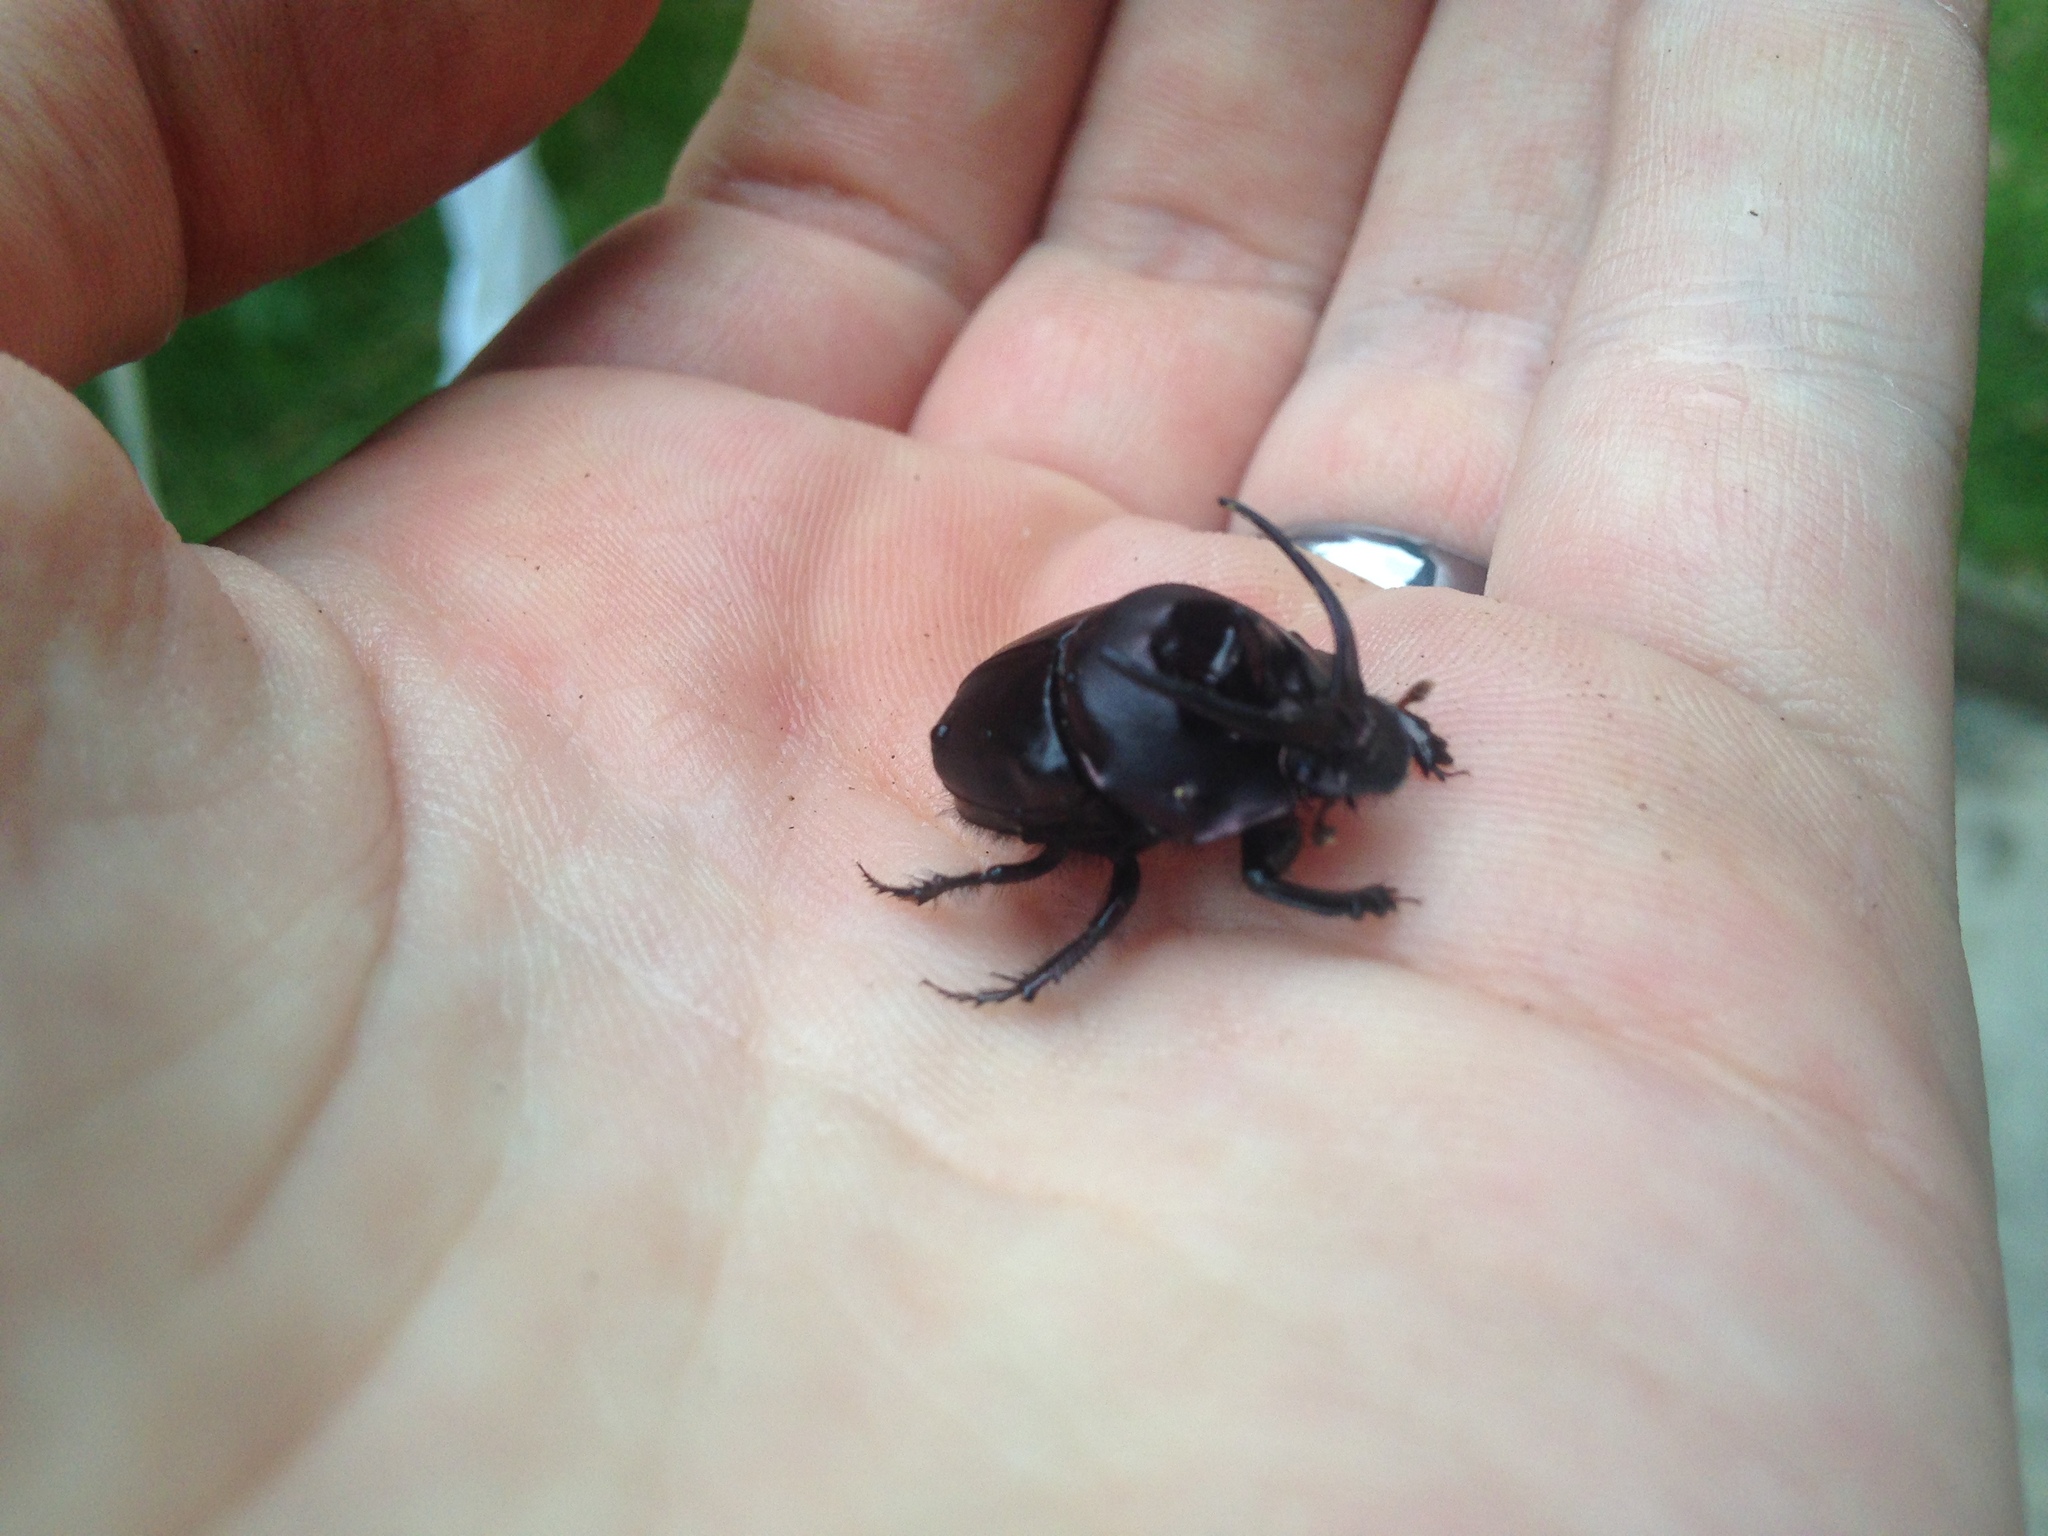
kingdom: Animalia
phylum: Arthropoda
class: Insecta
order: Coleoptera
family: Scarabaeidae
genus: Proagoderus
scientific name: Proagoderus watanabei
